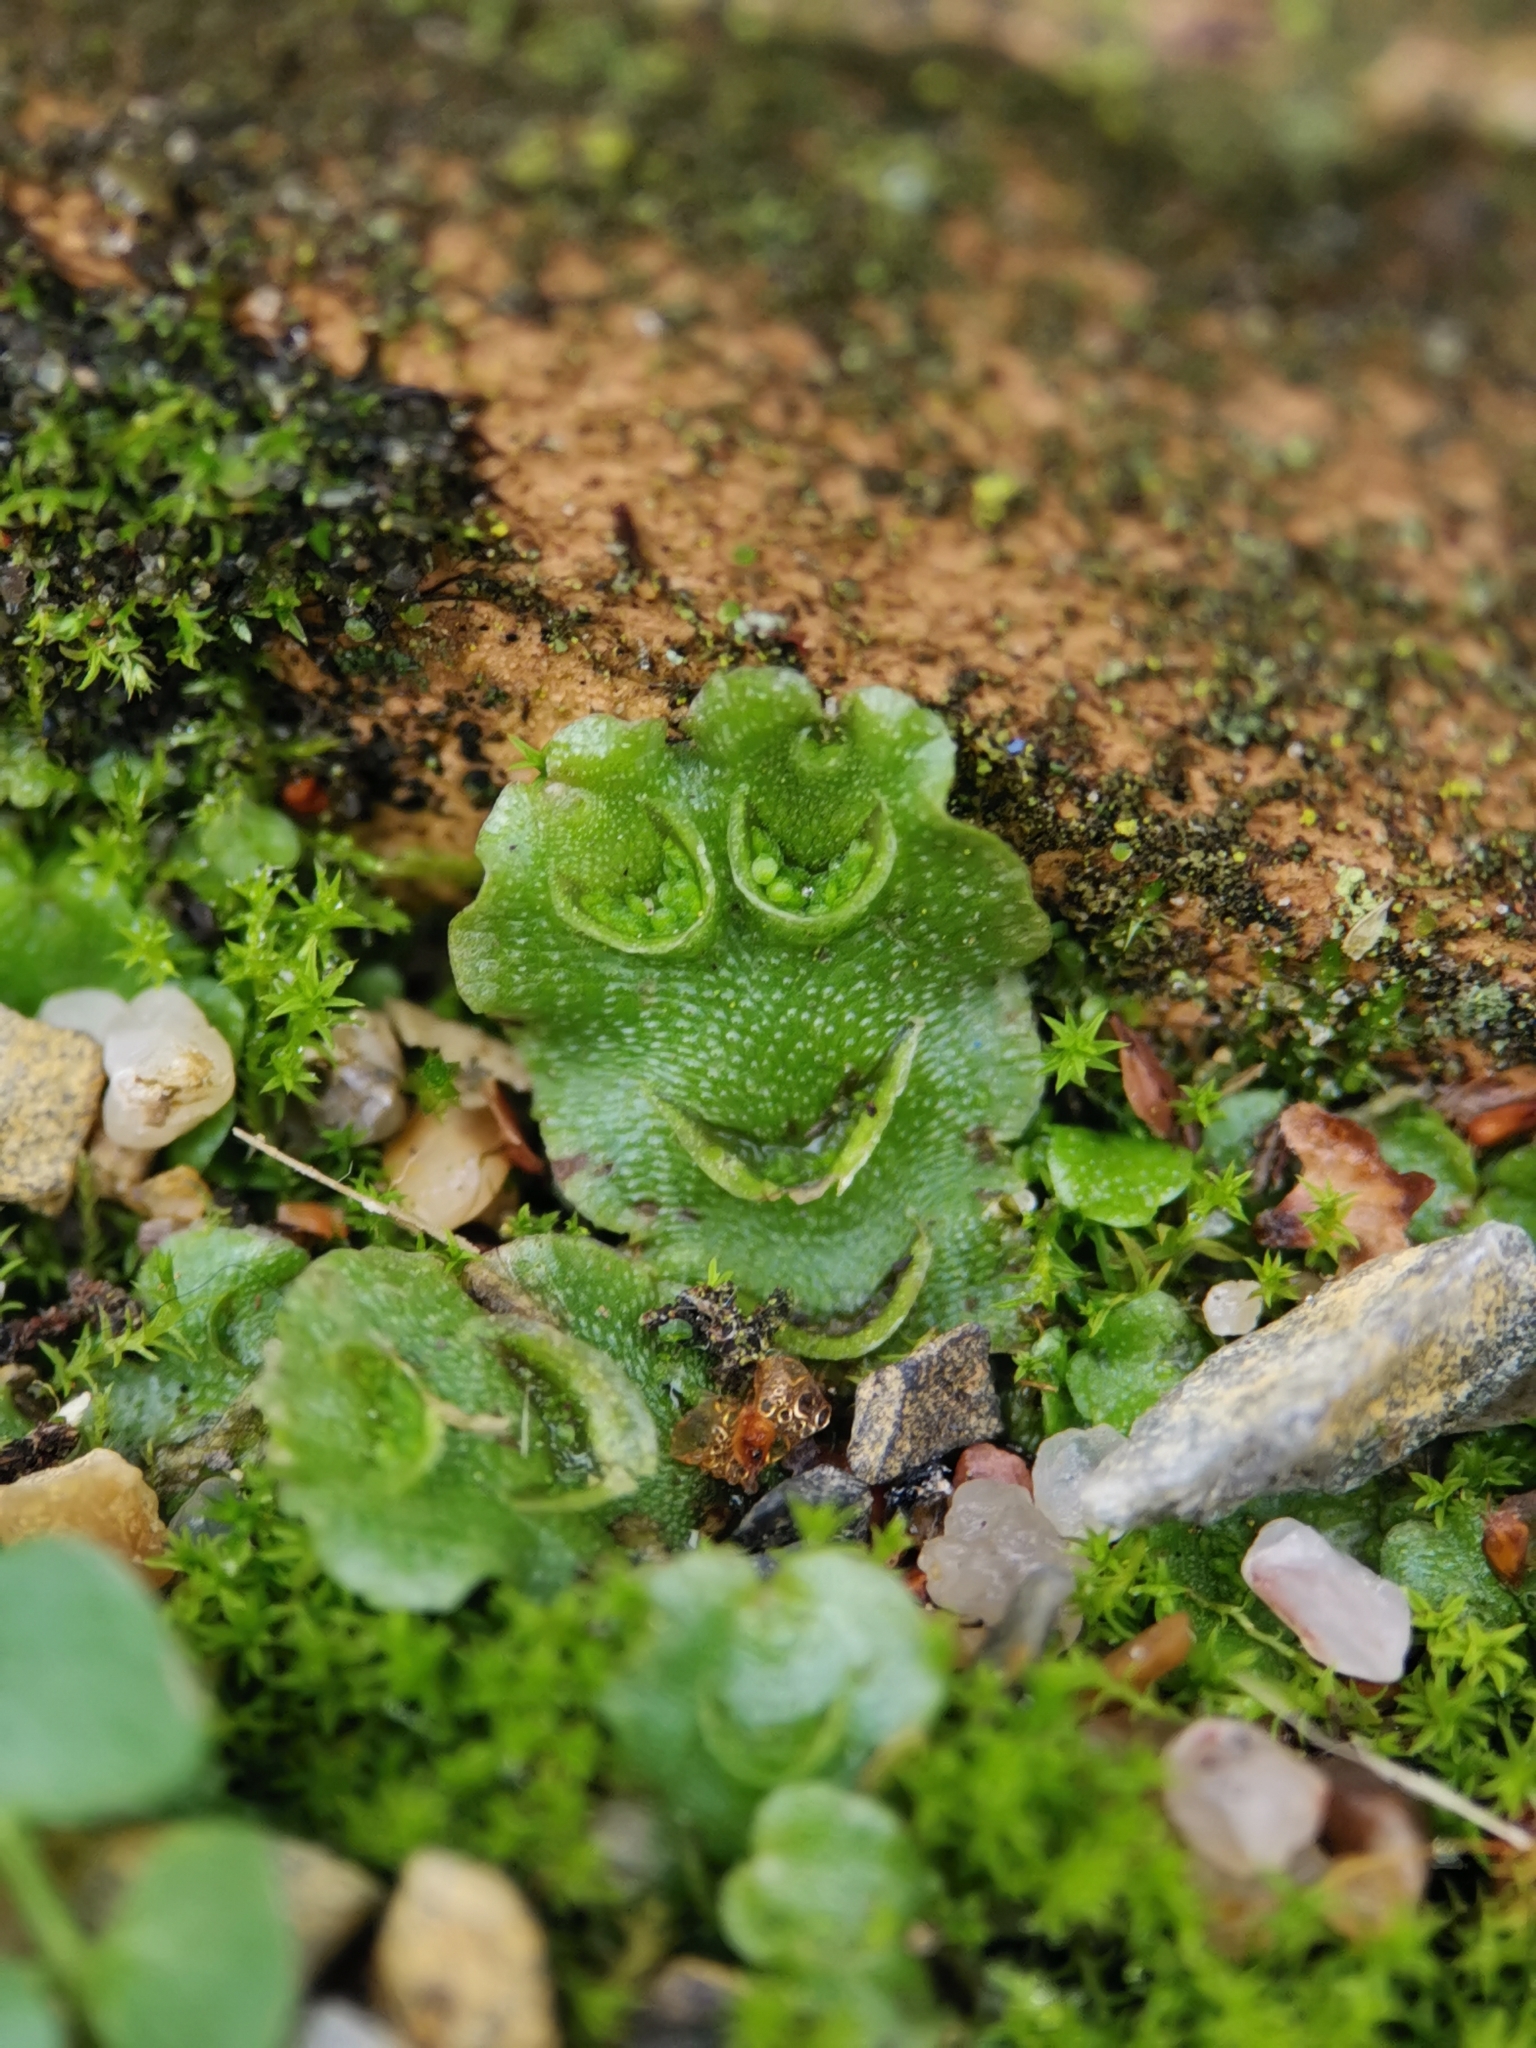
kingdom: Plantae
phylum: Marchantiophyta
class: Marchantiopsida
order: Lunulariales
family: Lunulariaceae
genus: Lunularia
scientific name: Lunularia cruciata
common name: Crescent-cup liverwort
